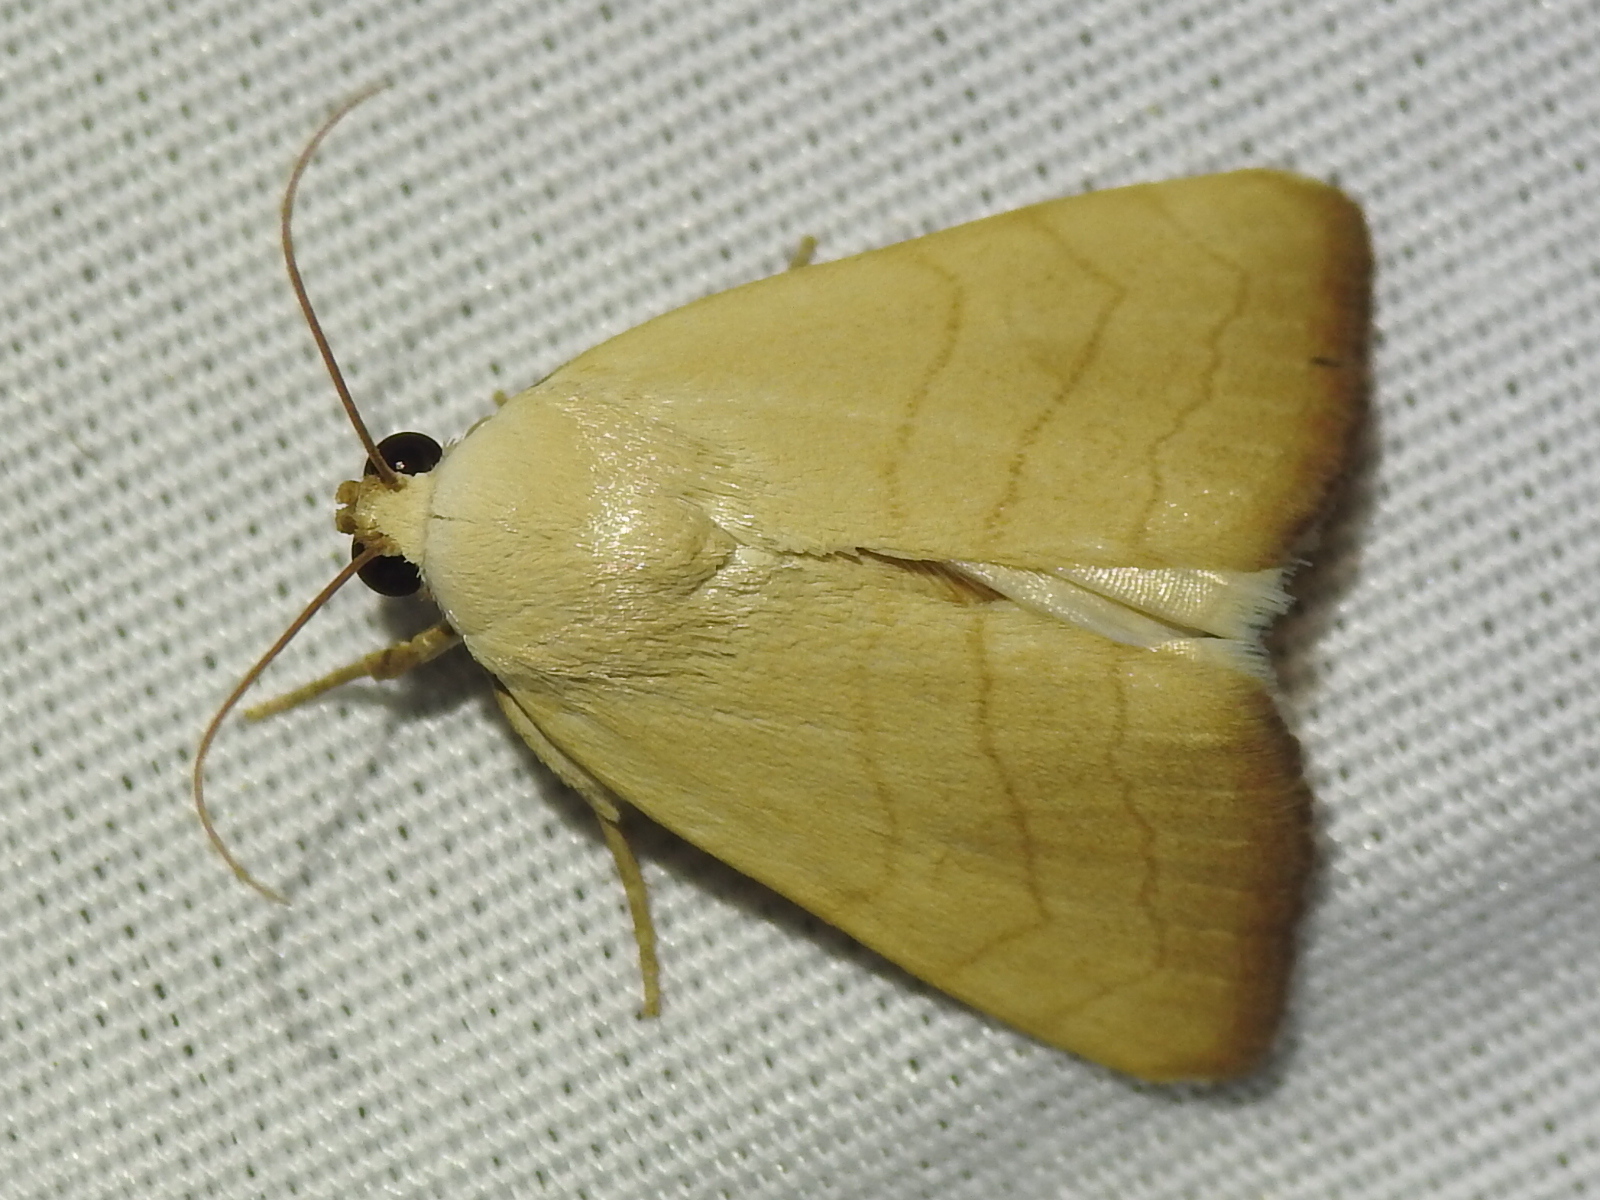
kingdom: Animalia
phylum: Arthropoda
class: Insecta
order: Lepidoptera
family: Noctuidae
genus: Bagisara
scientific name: Bagisara buxea
